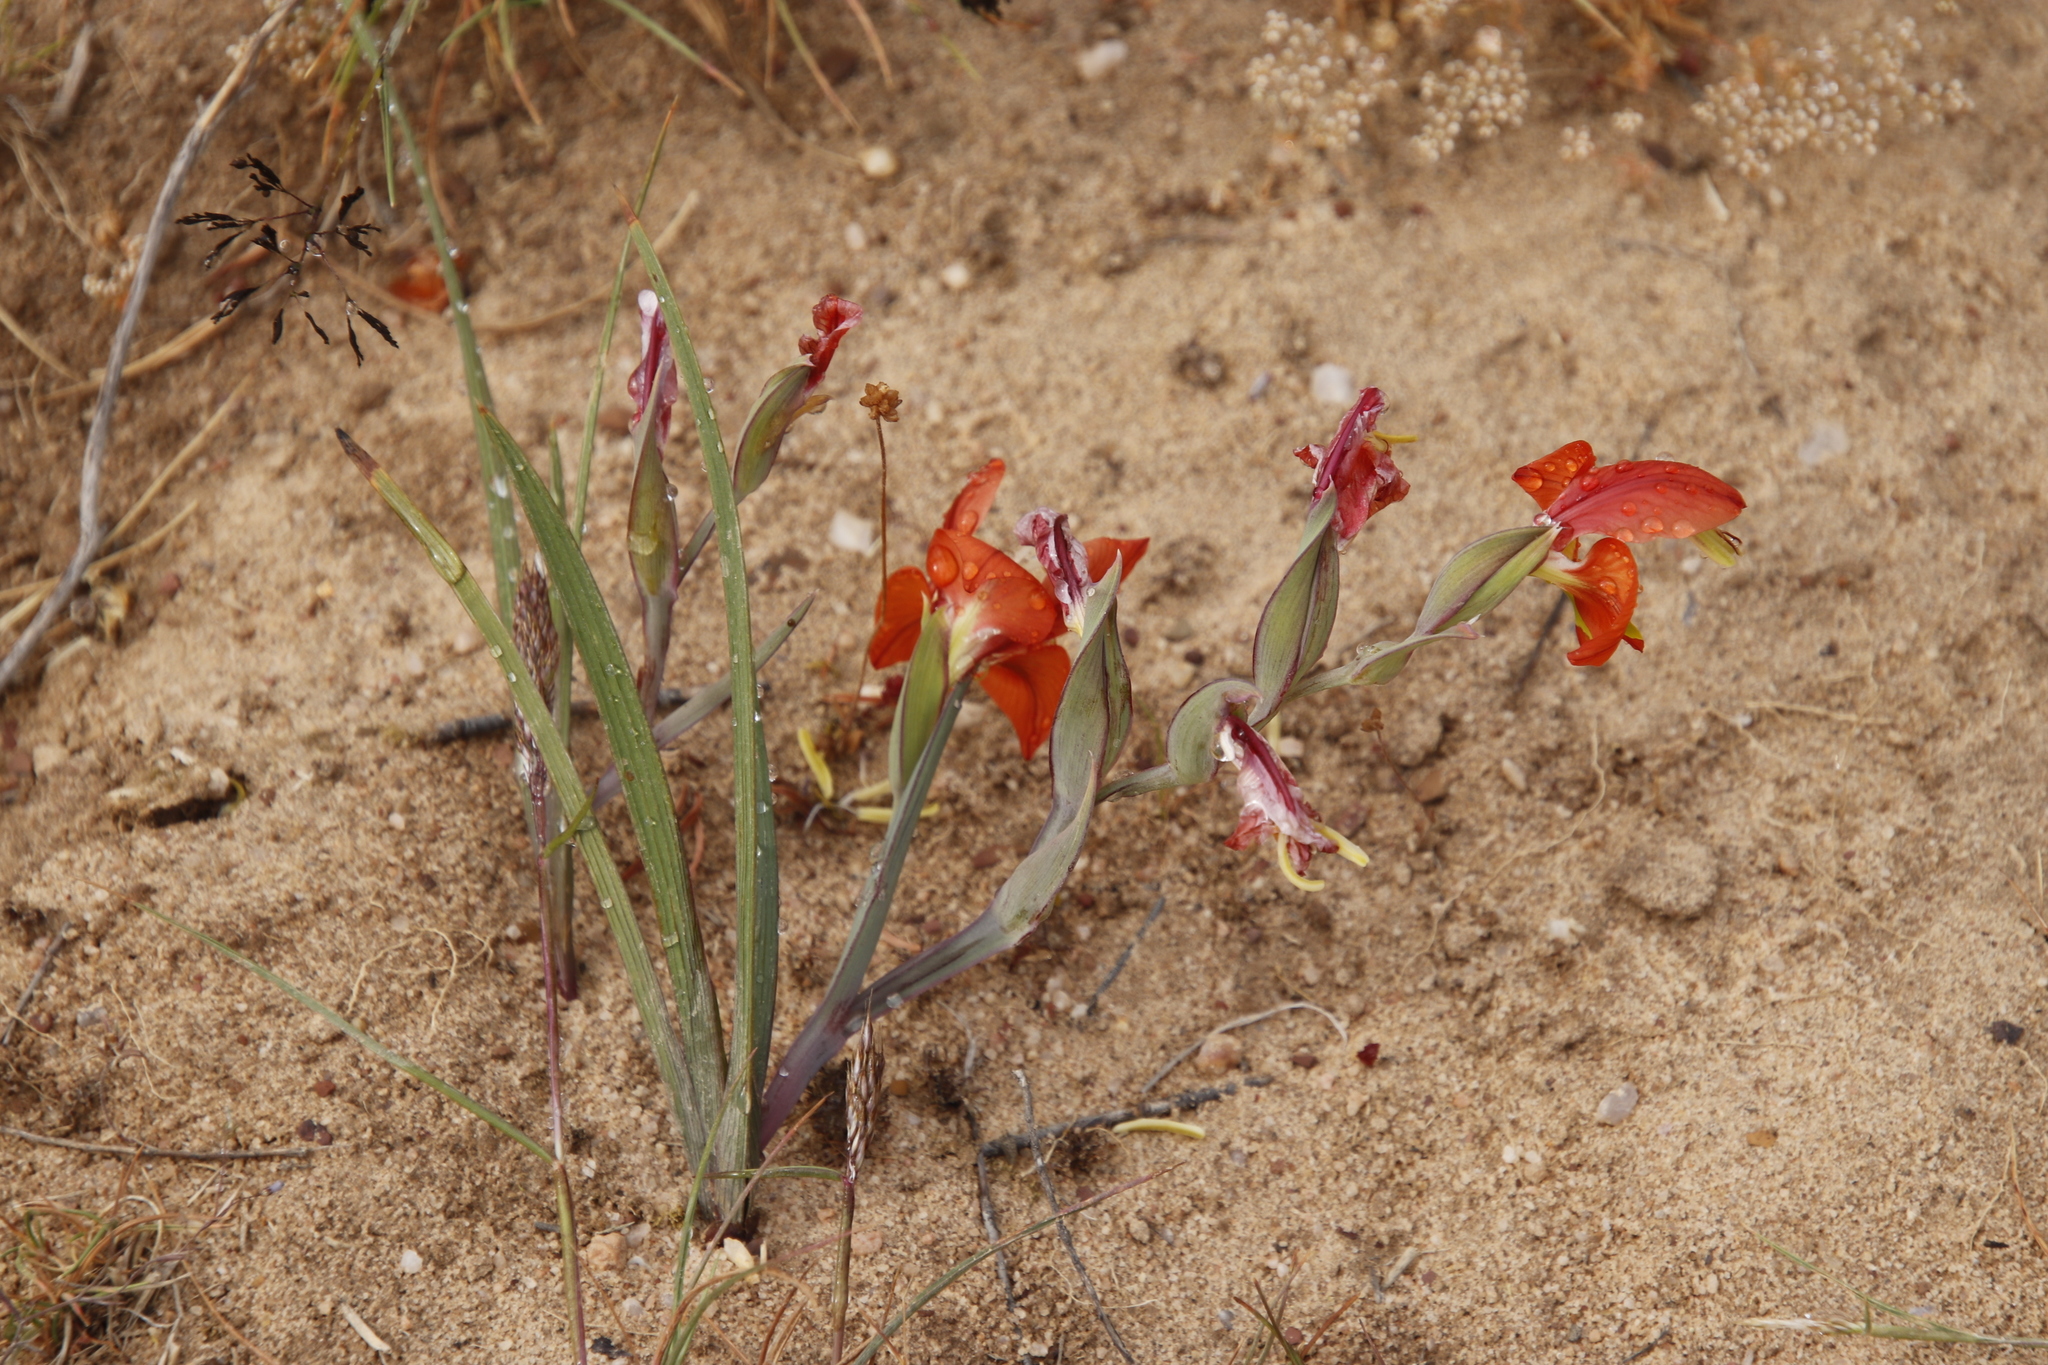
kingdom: Plantae
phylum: Tracheophyta
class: Liliopsida
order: Asparagales
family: Iridaceae
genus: Gladiolus
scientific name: Gladiolus speciosus
